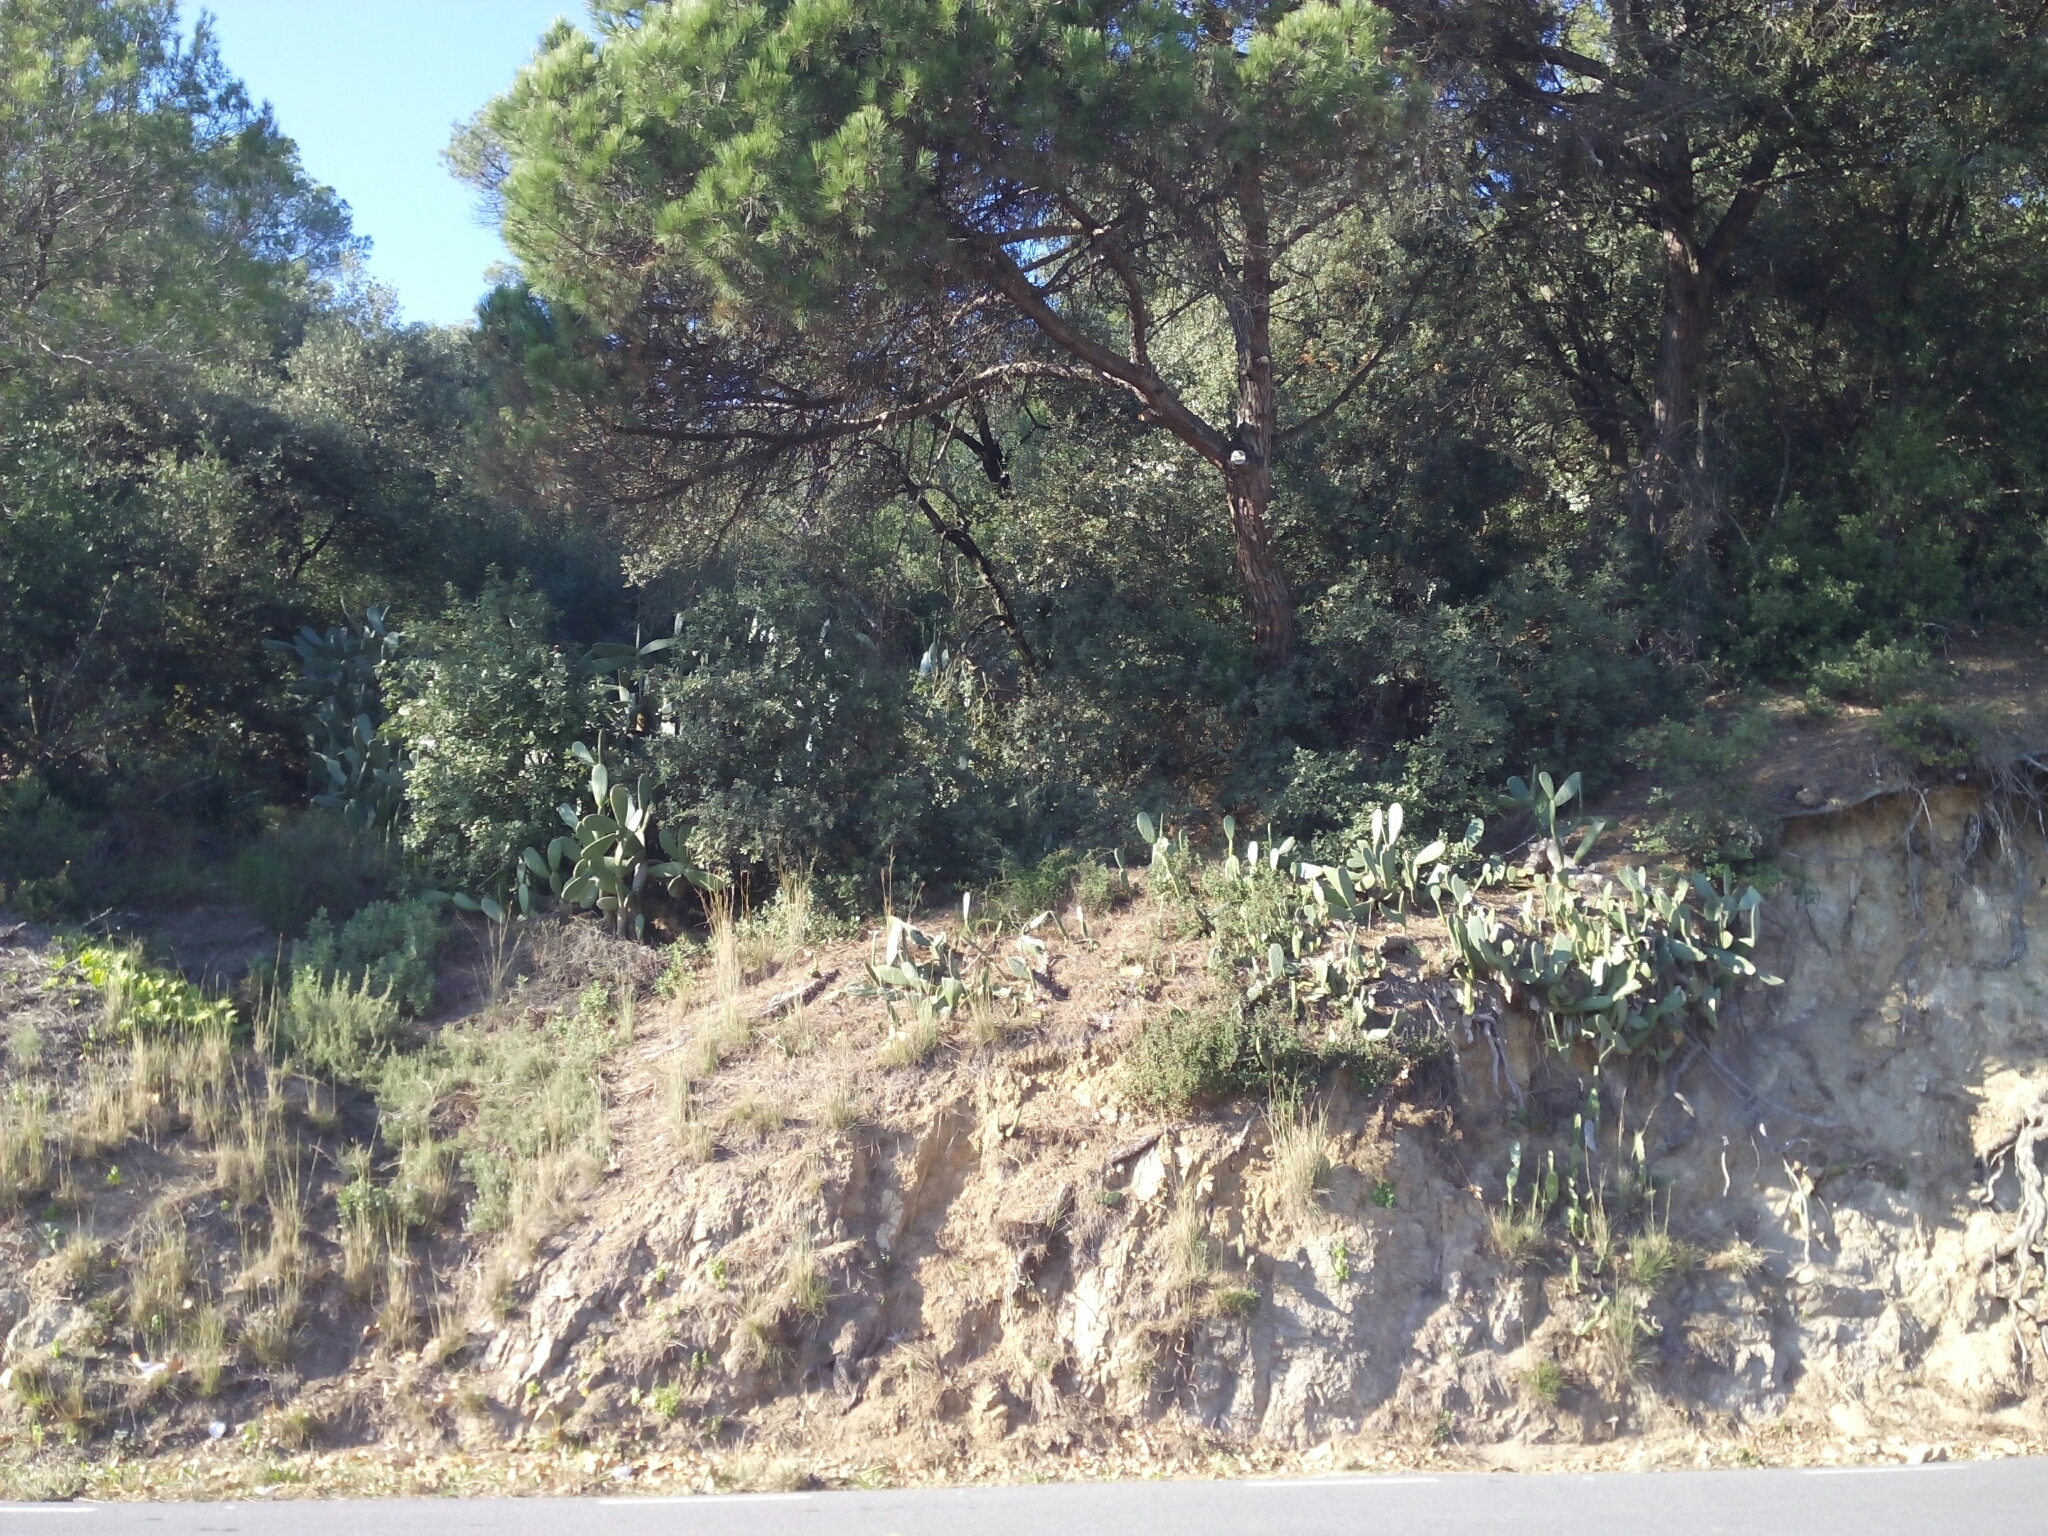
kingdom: Plantae
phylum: Tracheophyta
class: Magnoliopsida
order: Caryophyllales
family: Cactaceae
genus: Opuntia
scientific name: Opuntia ficus-indica
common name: Barbary fig
